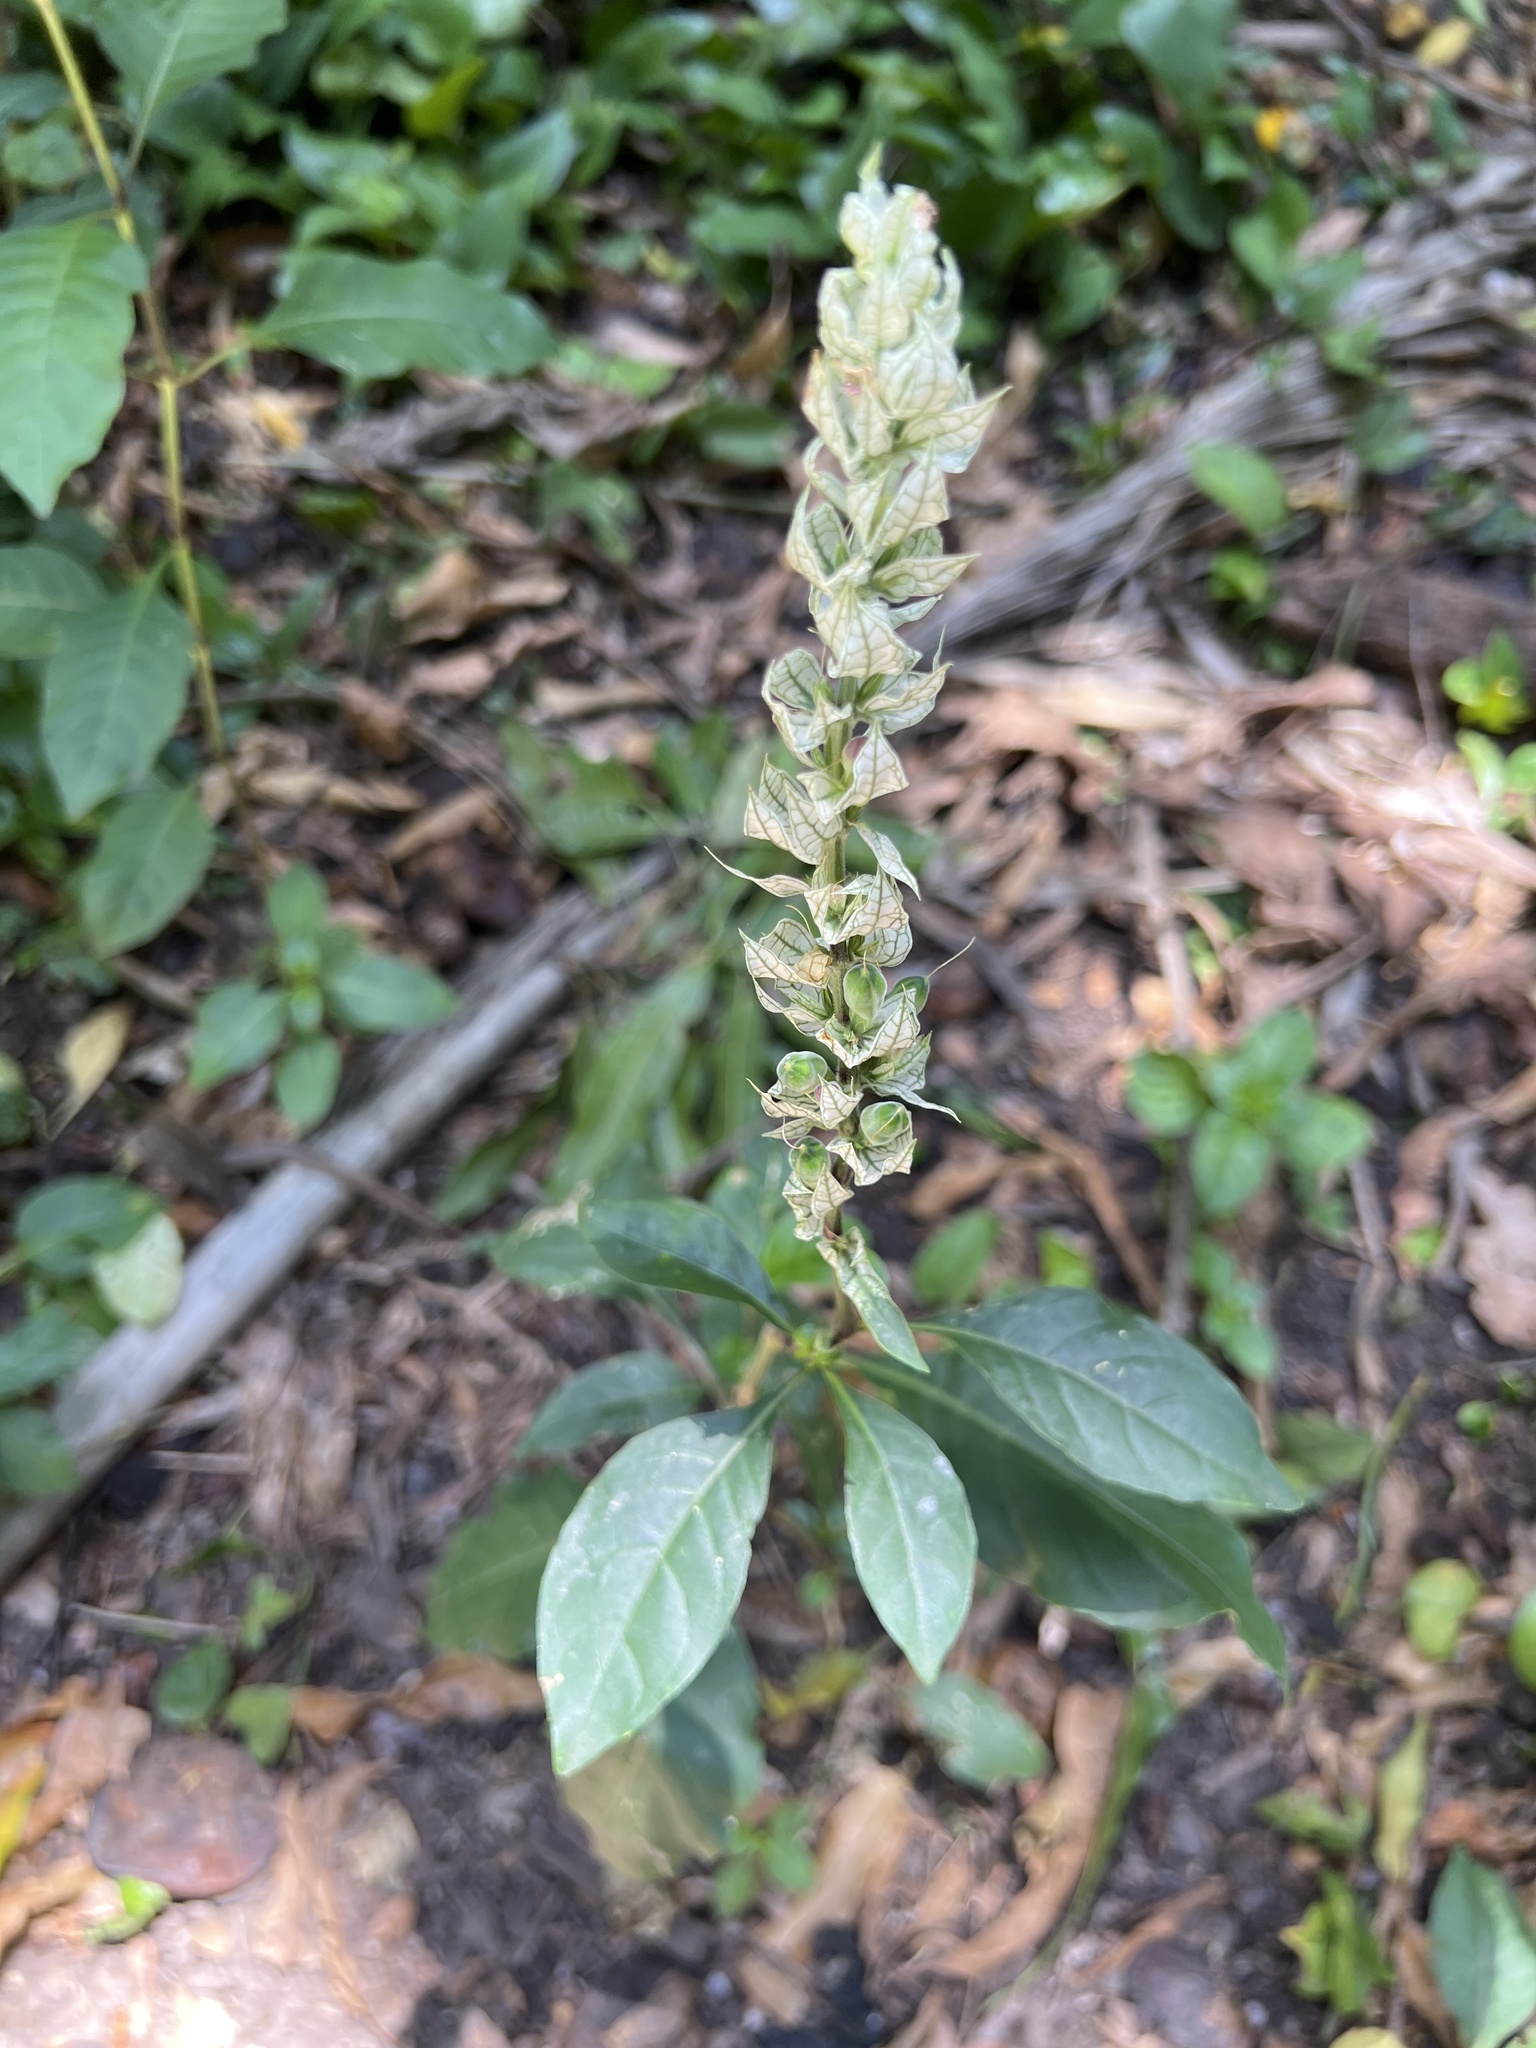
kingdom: Plantae
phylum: Tracheophyta
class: Magnoliopsida
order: Lamiales
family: Acanthaceae
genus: Justicia
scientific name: Justicia betonica
